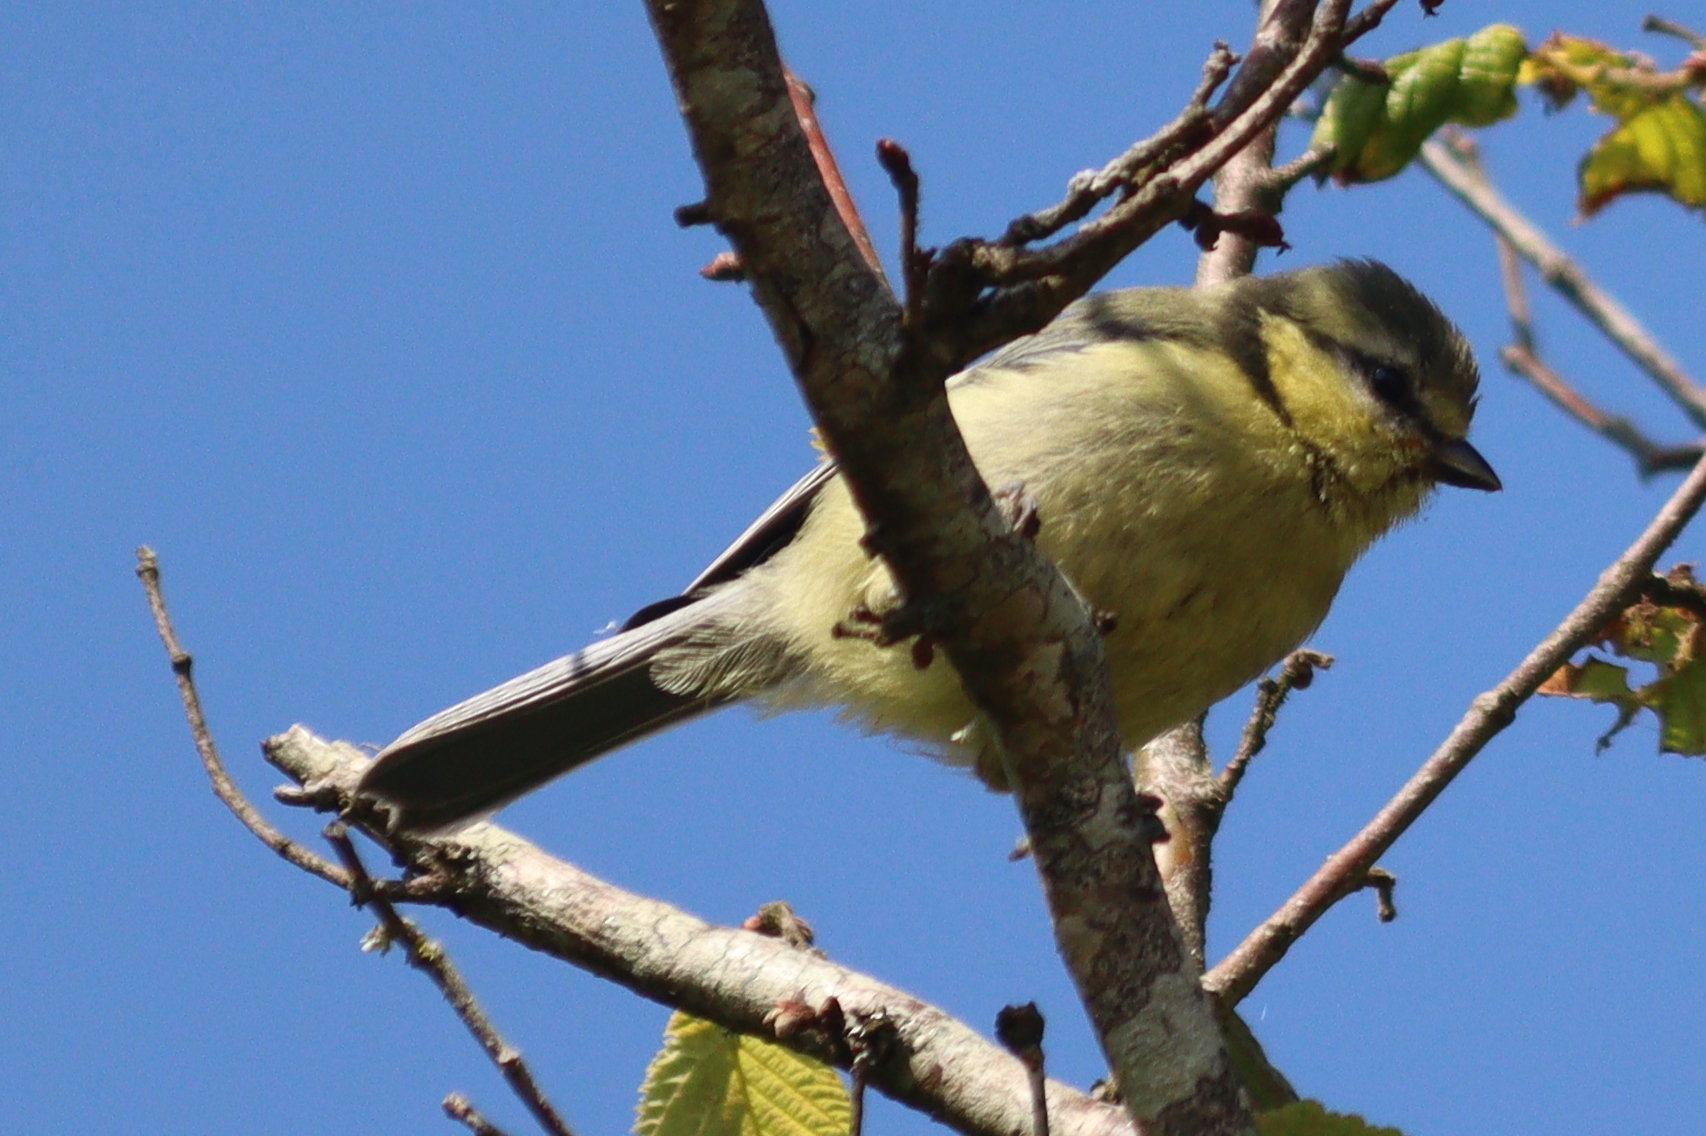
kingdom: Animalia
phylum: Chordata
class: Aves
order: Passeriformes
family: Paridae
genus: Cyanistes
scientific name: Cyanistes caeruleus
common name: Eurasian blue tit
